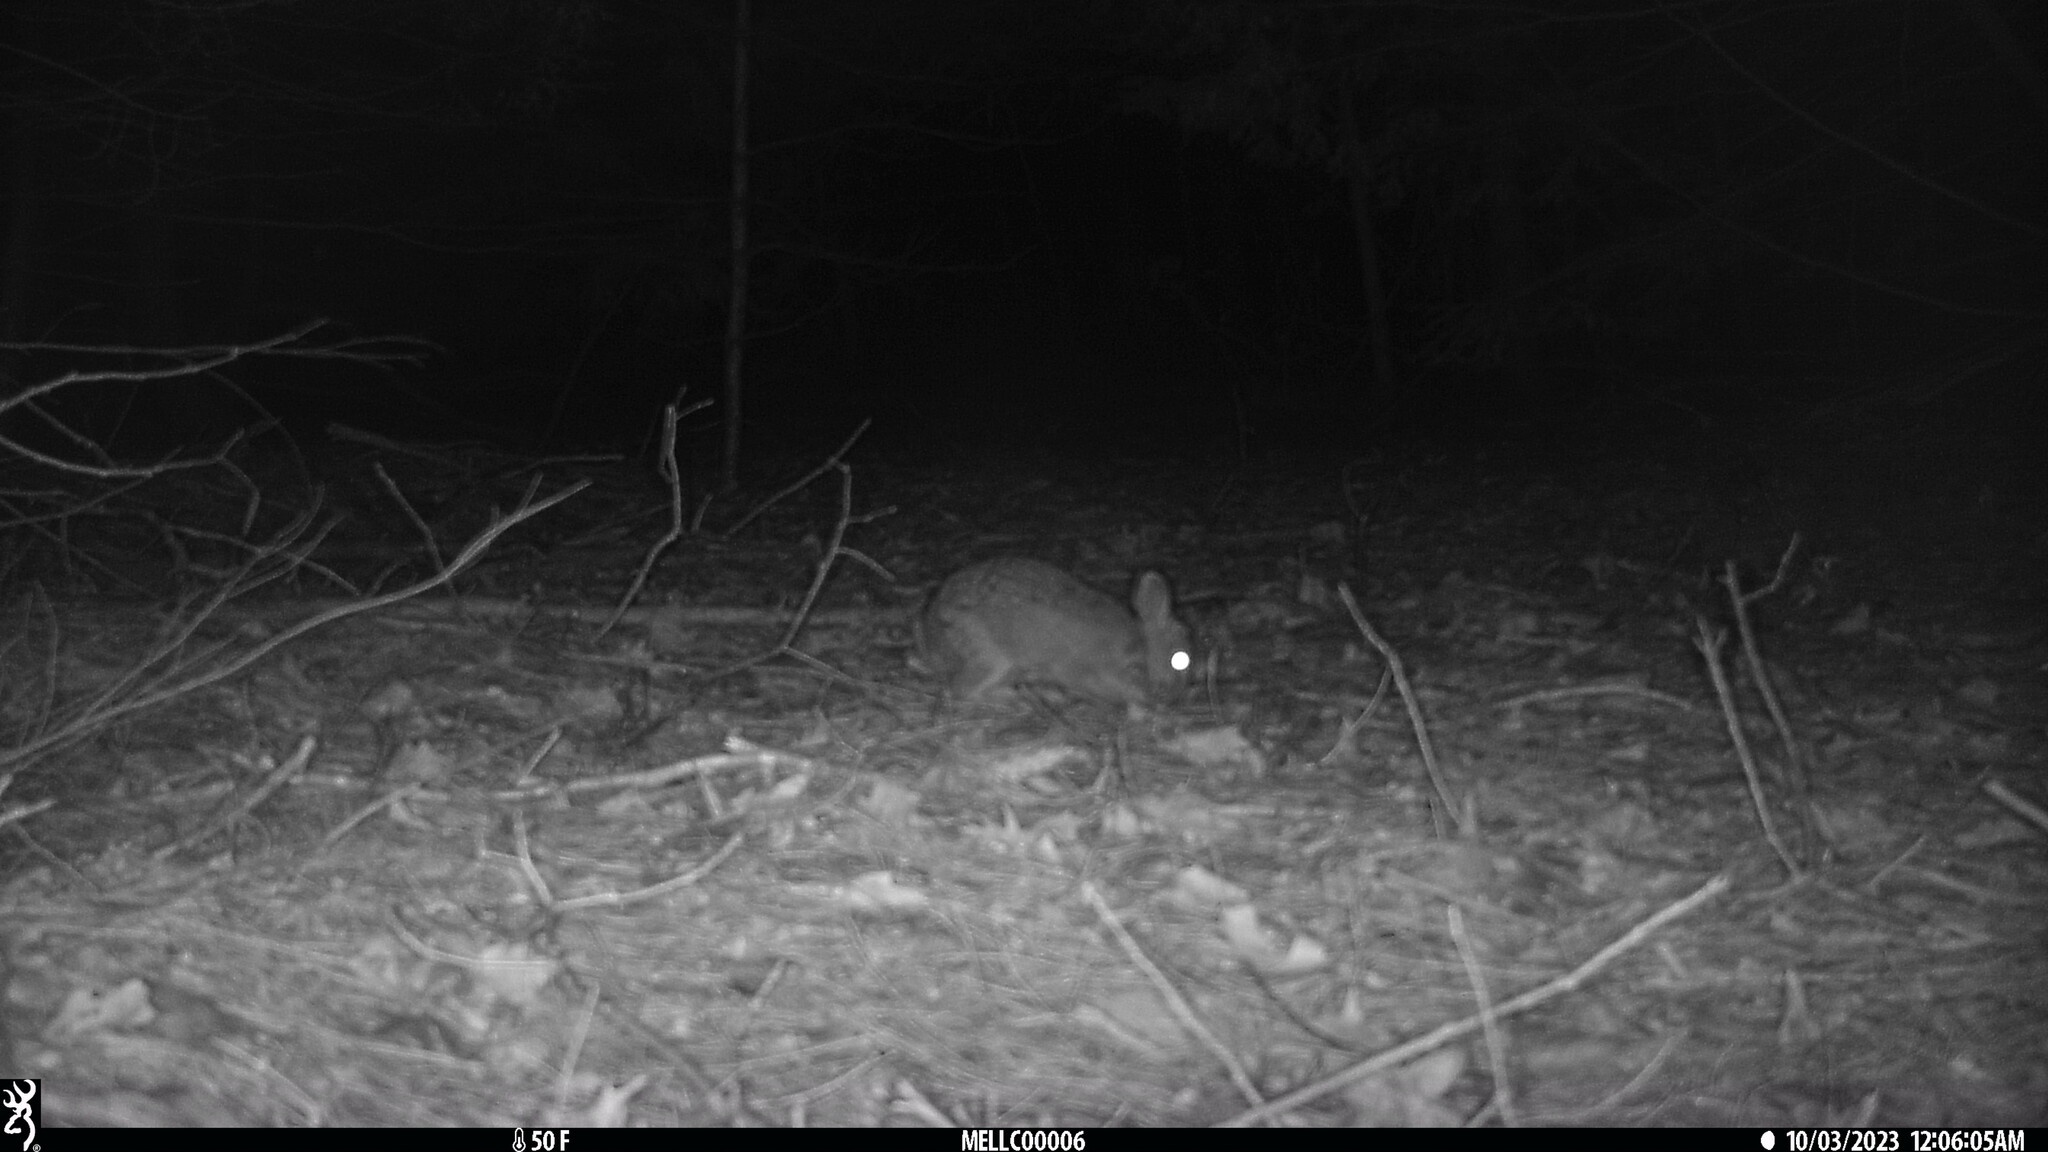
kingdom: Animalia
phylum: Chordata
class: Mammalia
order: Lagomorpha
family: Leporidae
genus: Sylvilagus
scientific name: Sylvilagus floridanus
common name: Eastern cottontail
